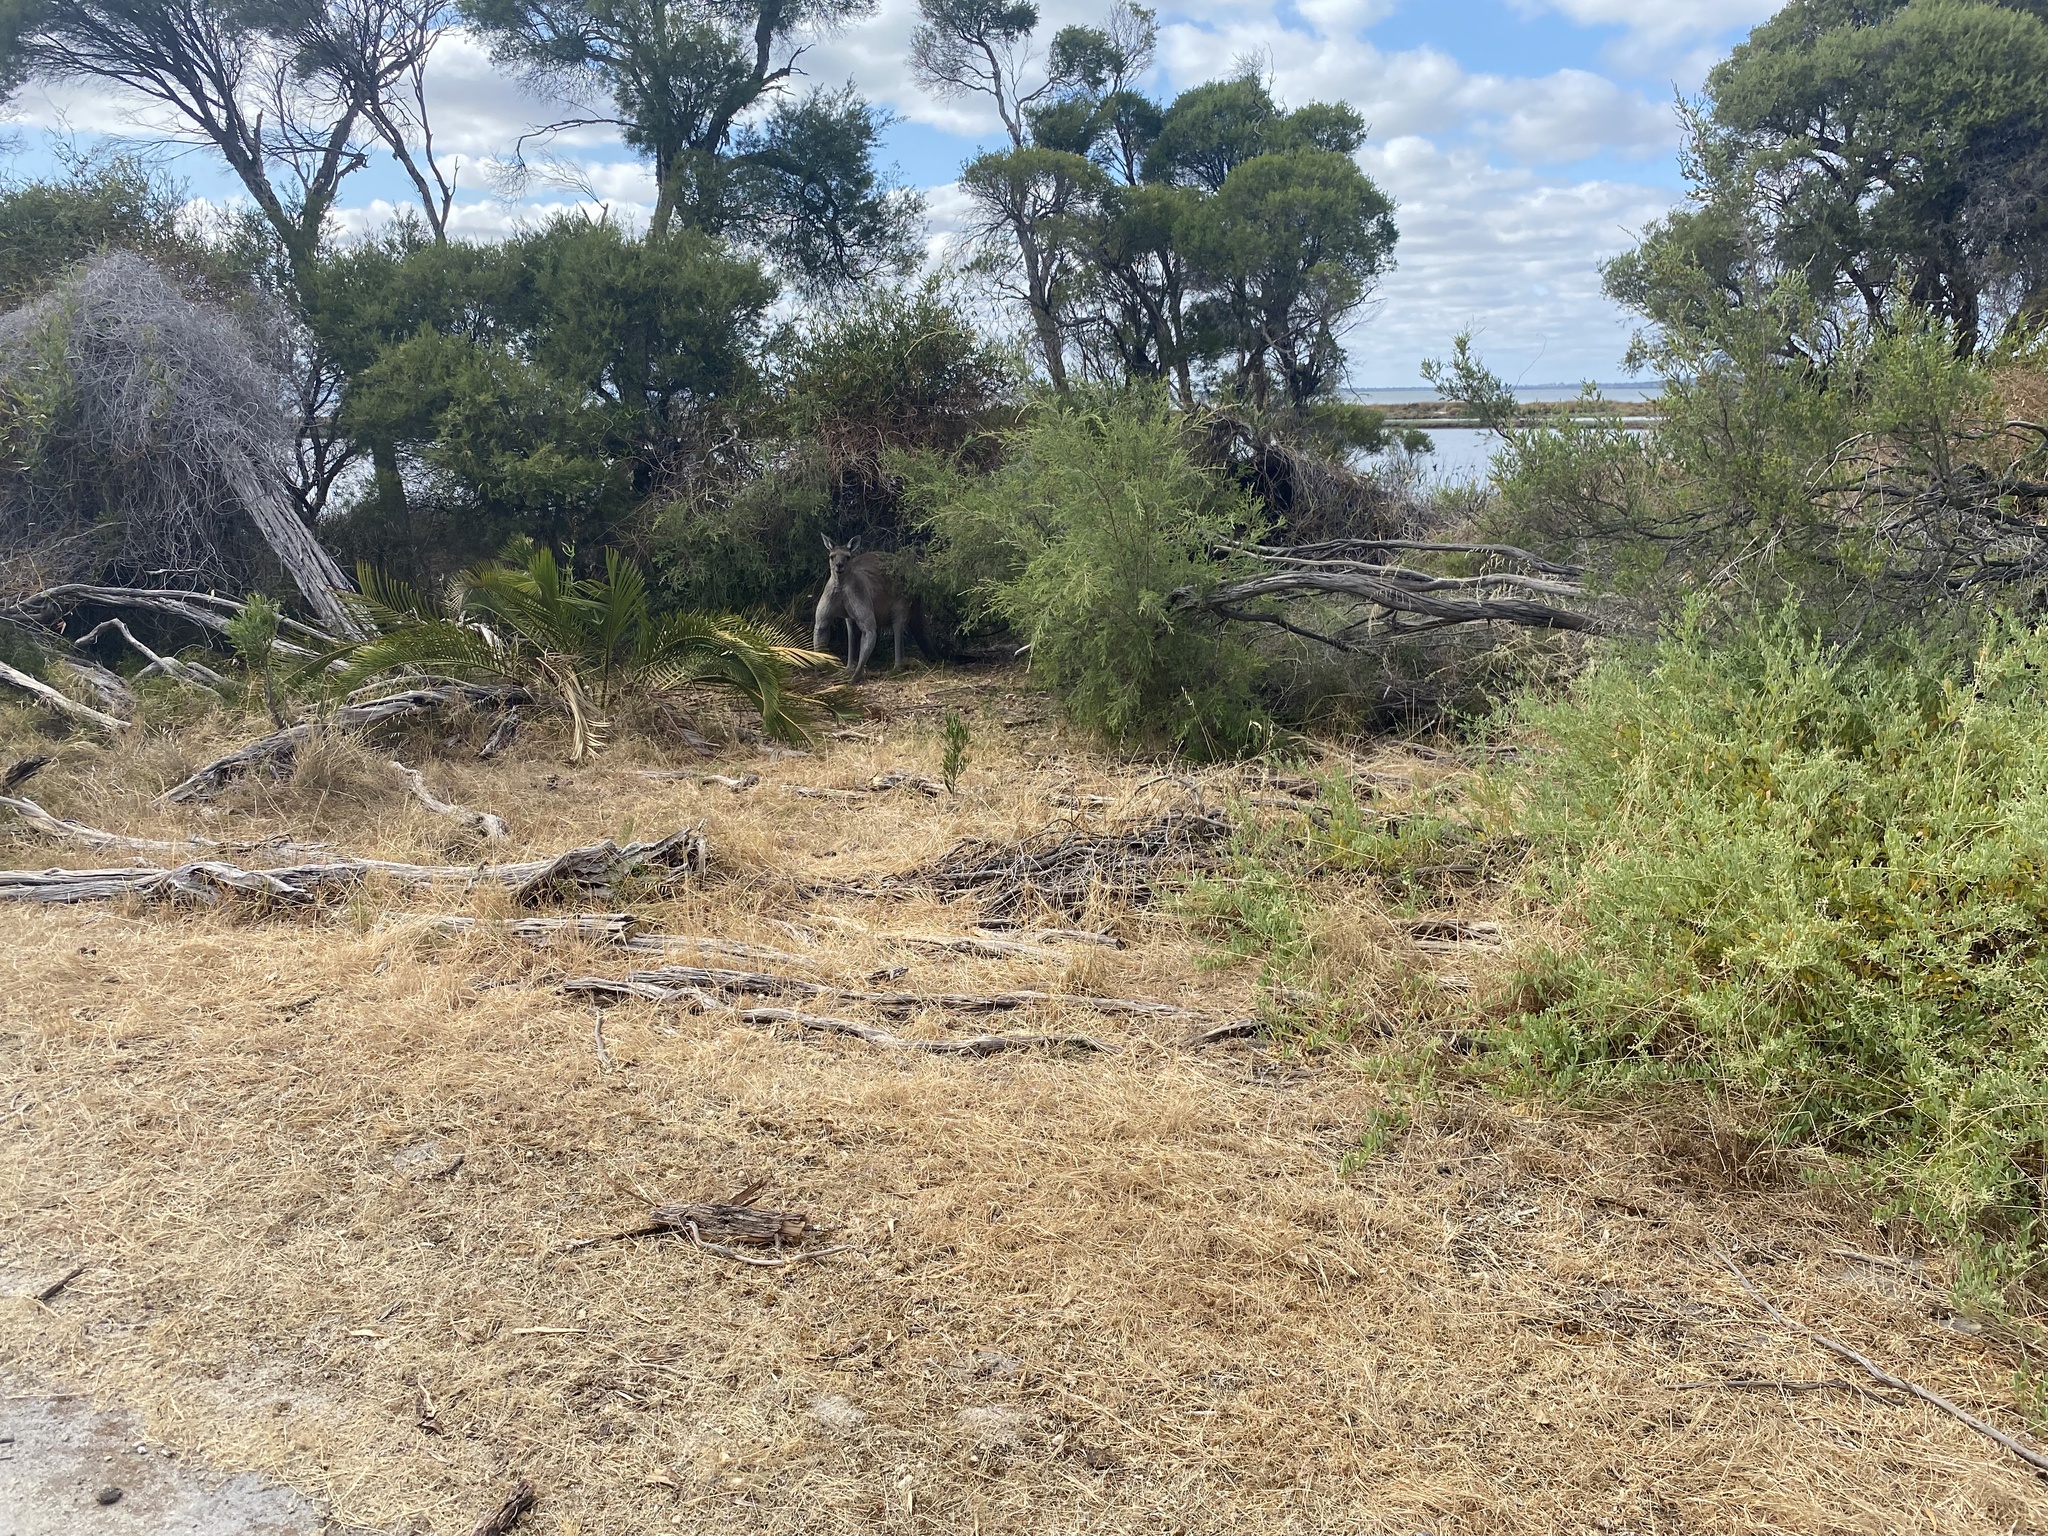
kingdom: Animalia
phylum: Chordata
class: Mammalia
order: Diprotodontia
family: Macropodidae
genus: Macropus
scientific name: Macropus fuliginosus
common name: Western grey kangaroo
